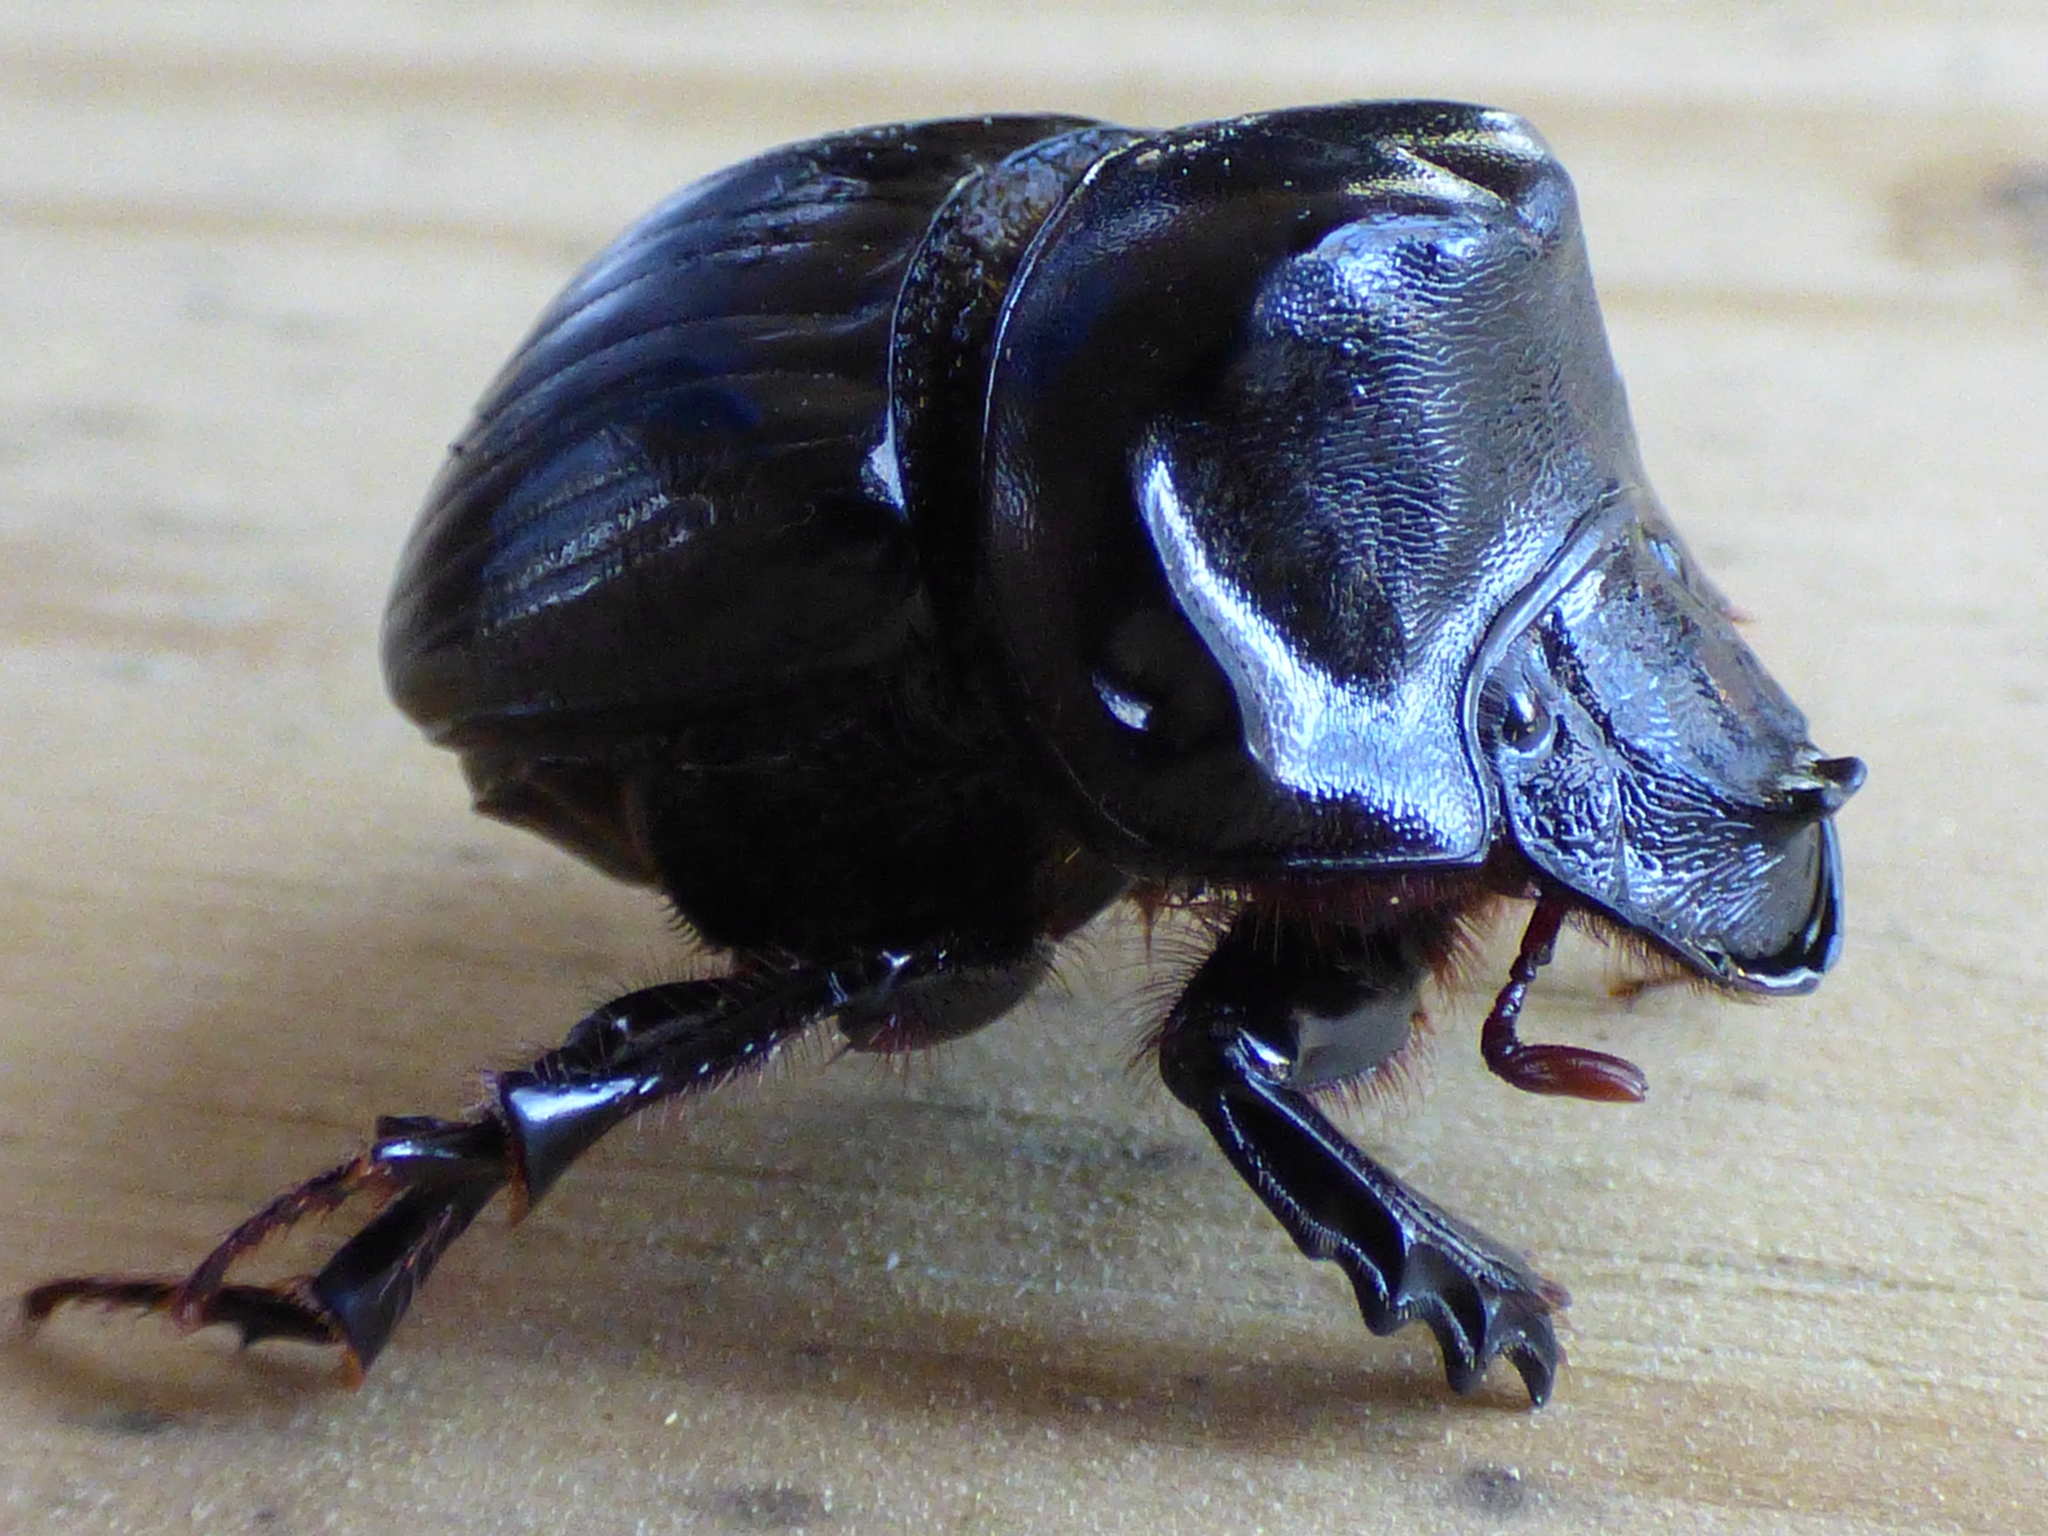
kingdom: Animalia
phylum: Arthropoda
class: Insecta
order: Coleoptera
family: Scarabaeidae
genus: Dichotomius
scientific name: Dichotomius carolinus
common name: Carolina copris
